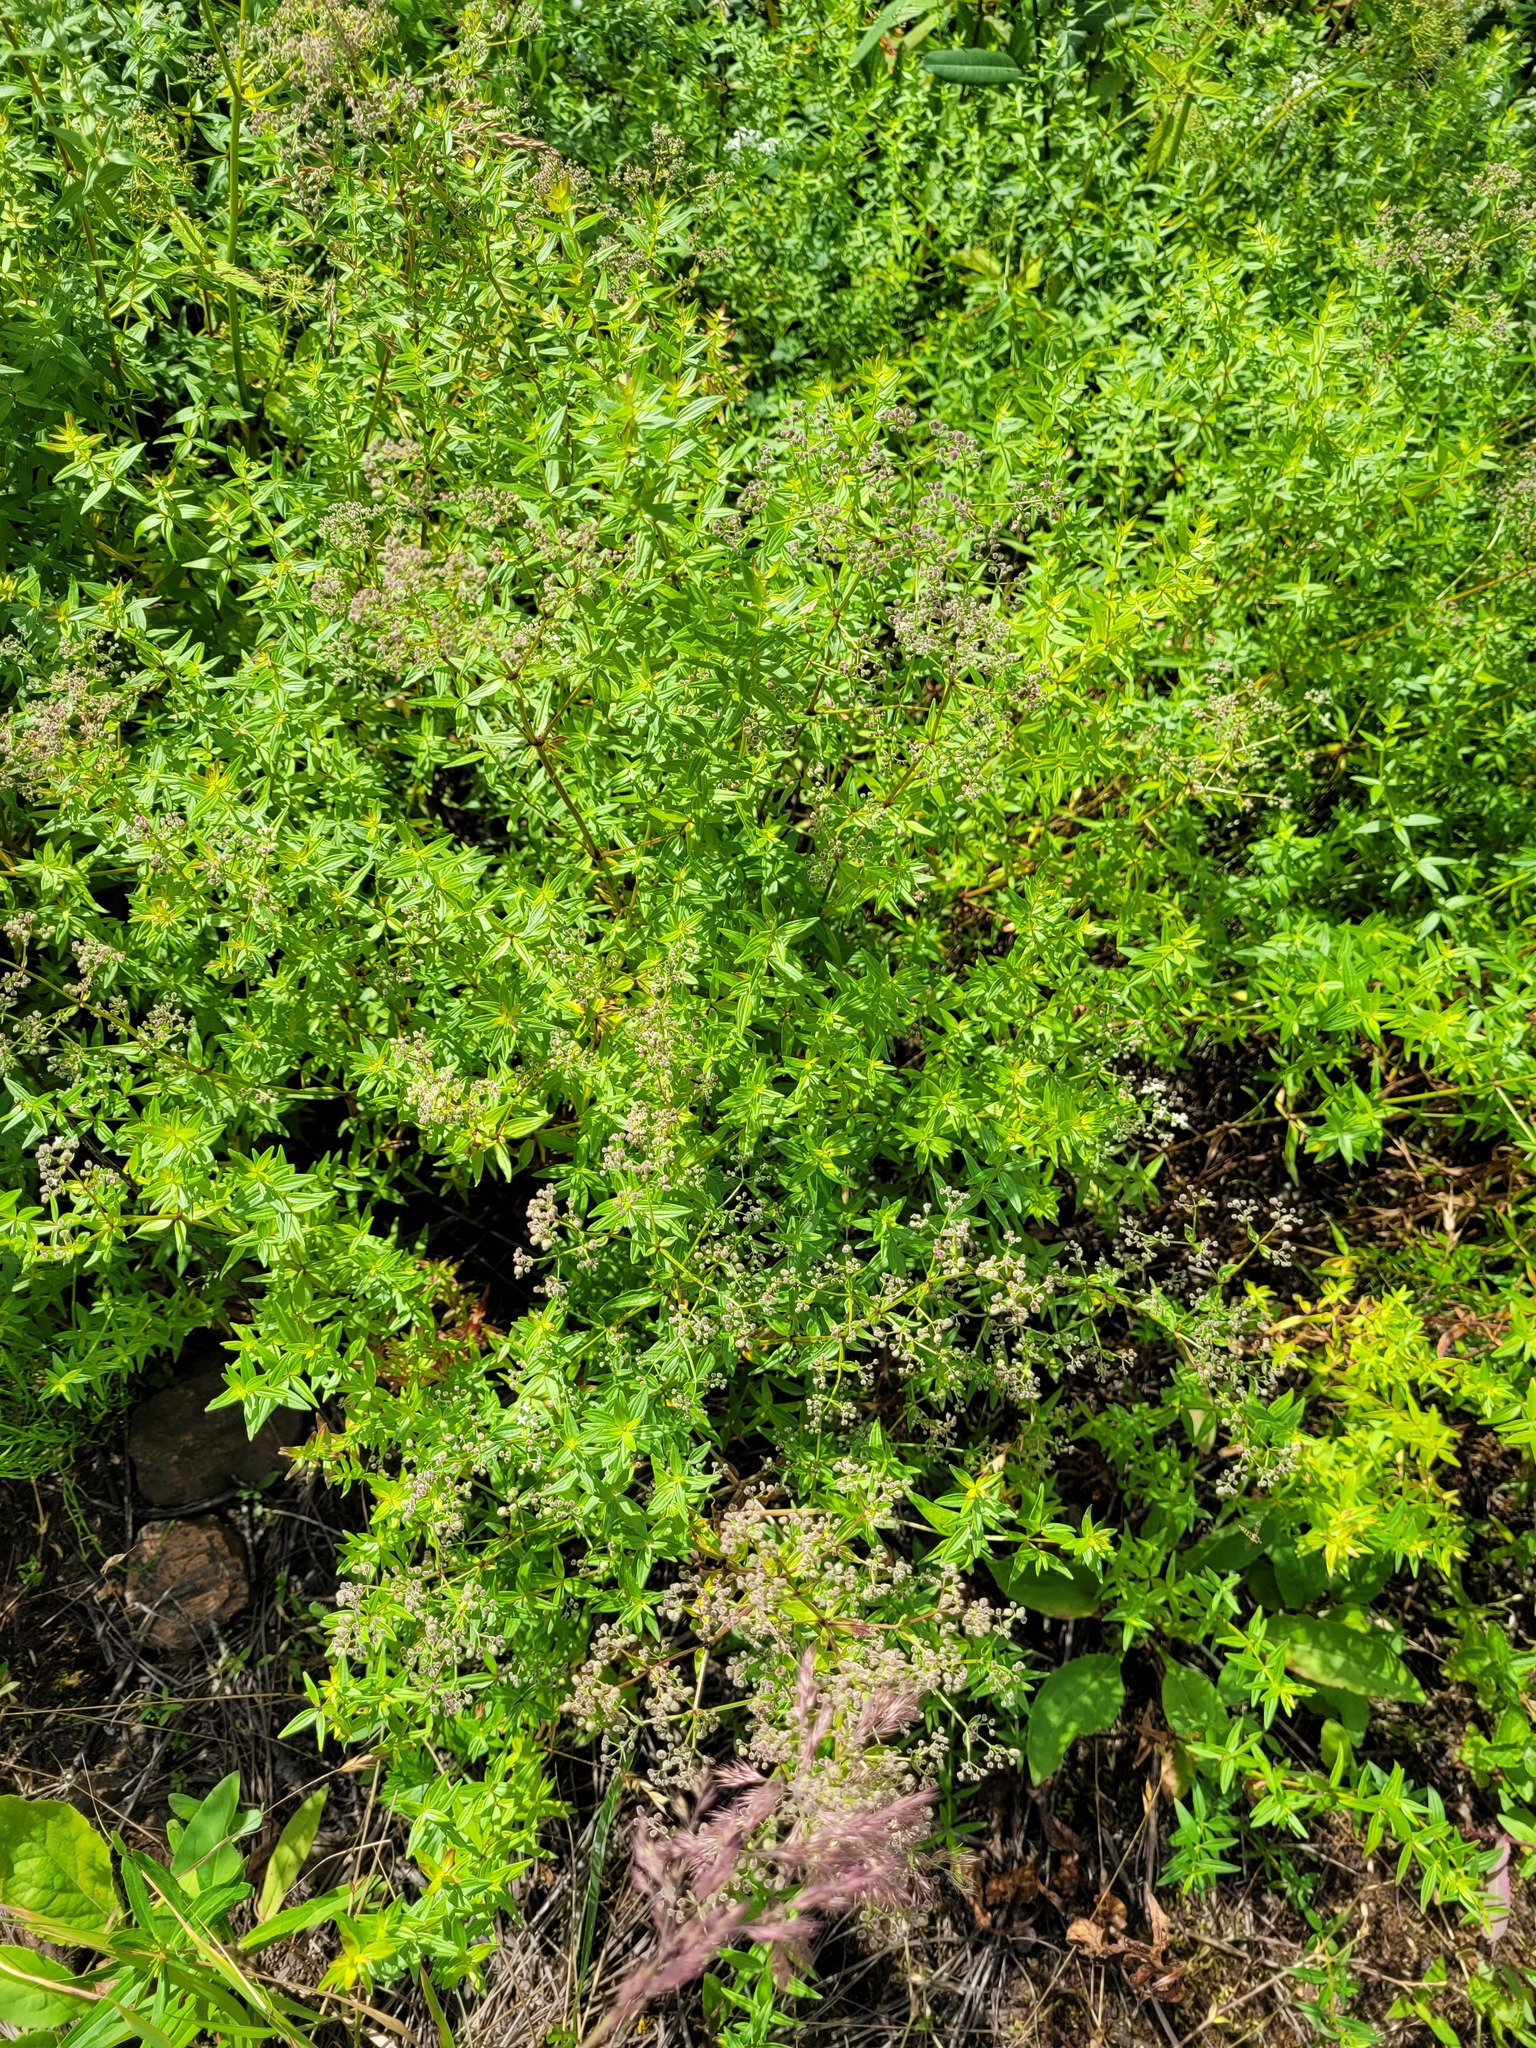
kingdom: Plantae
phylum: Tracheophyta
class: Magnoliopsida
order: Gentianales
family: Rubiaceae
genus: Galium
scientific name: Galium boreale
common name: Northern bedstraw
